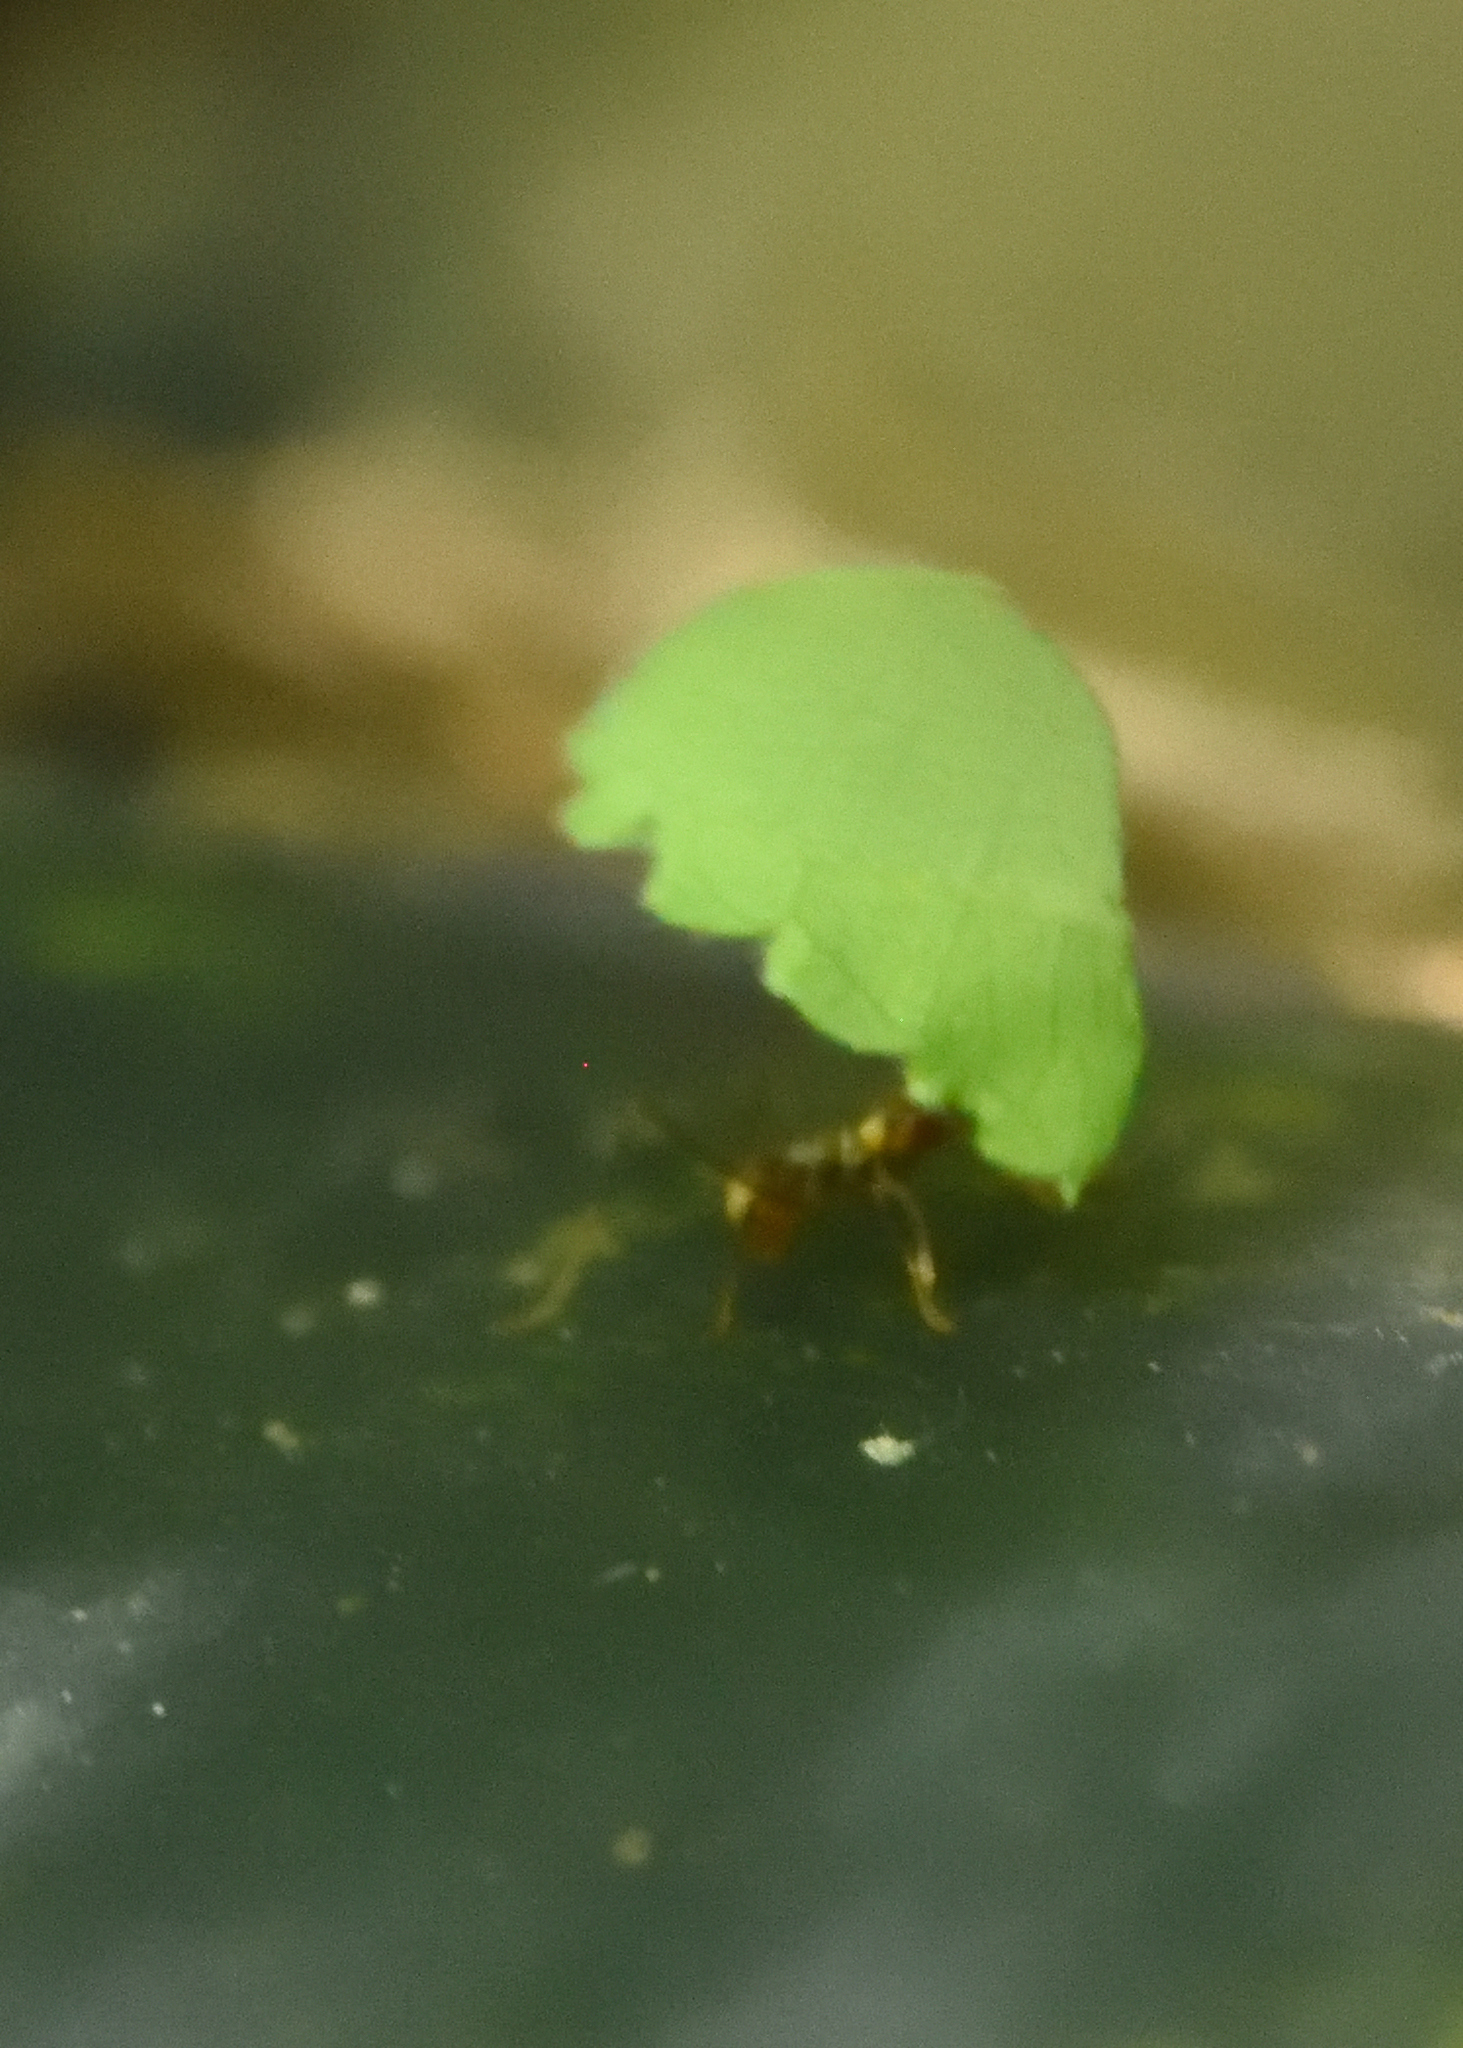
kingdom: Animalia
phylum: Arthropoda
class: Insecta
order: Hymenoptera
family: Formicidae
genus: Atta
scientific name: Atta cephalotes
